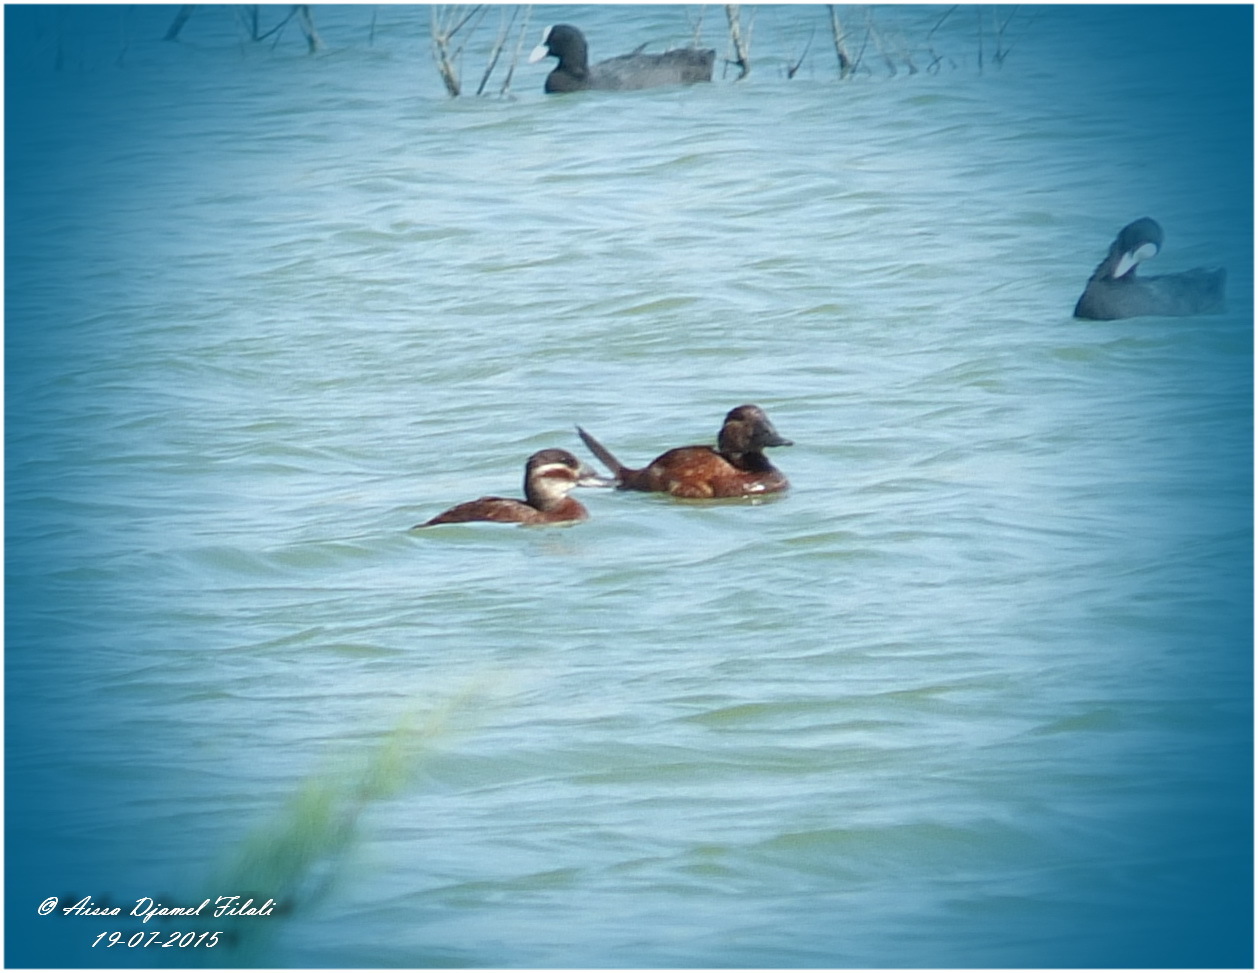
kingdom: Animalia
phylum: Chordata
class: Aves
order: Anseriformes
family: Anatidae
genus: Oxyura
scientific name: Oxyura leucocephala
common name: White-headed duck
